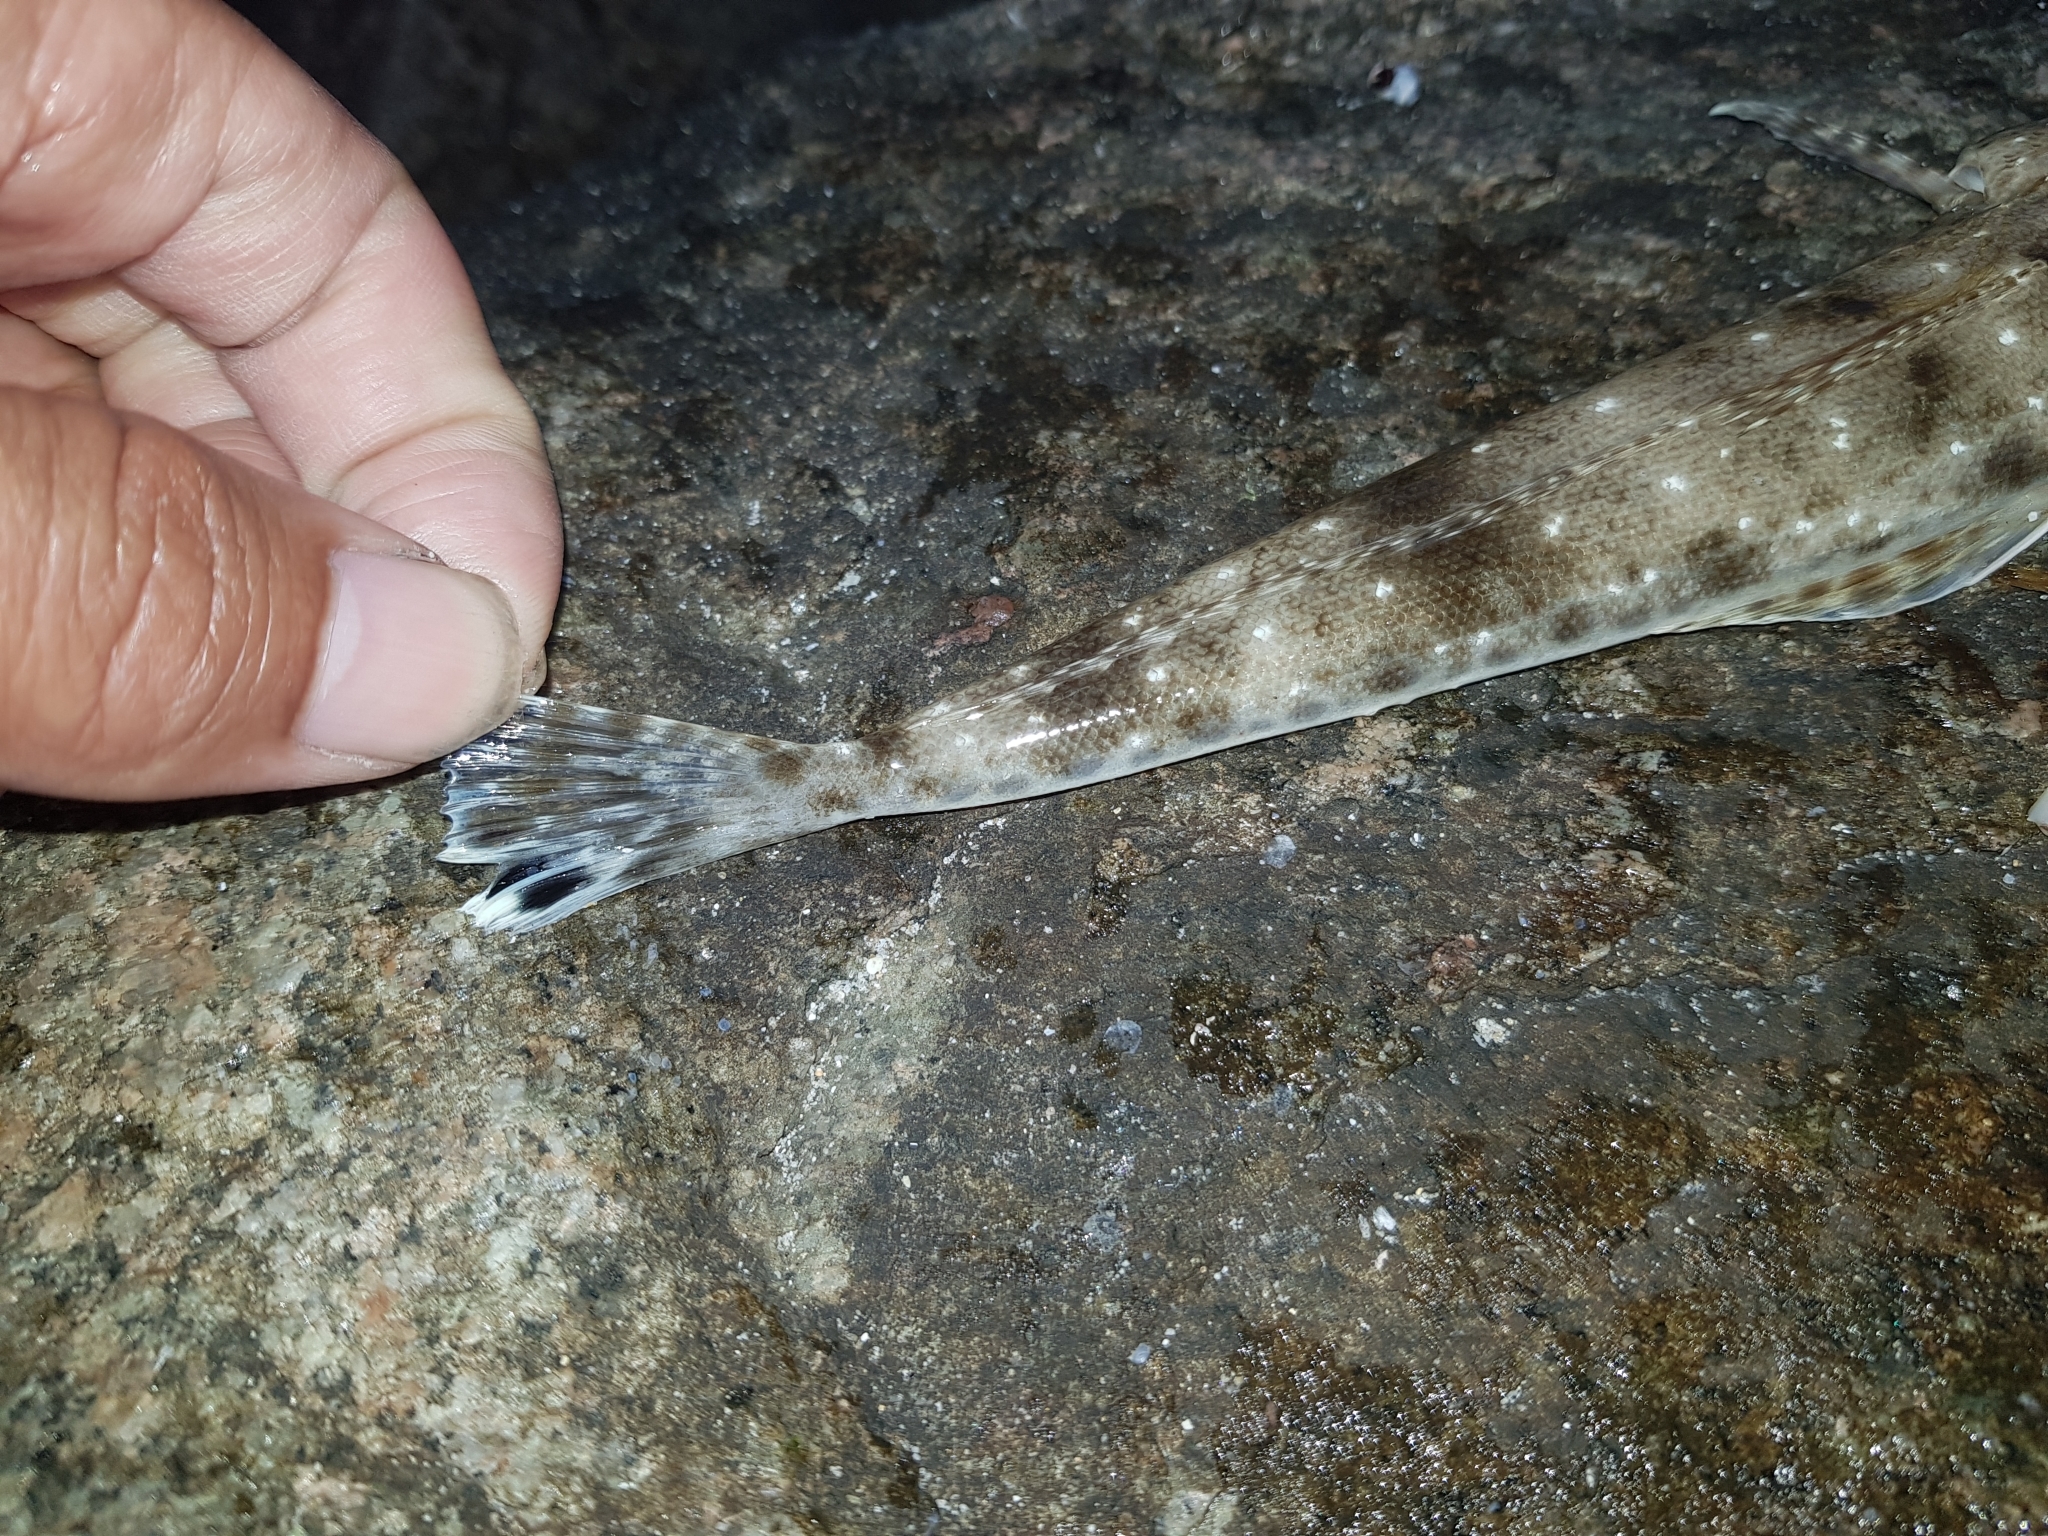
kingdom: Animalia
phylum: Chordata
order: Scorpaeniformes
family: Platycephalidae
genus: Platycephalus
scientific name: Platycephalus bassensis
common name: Sand flathead
